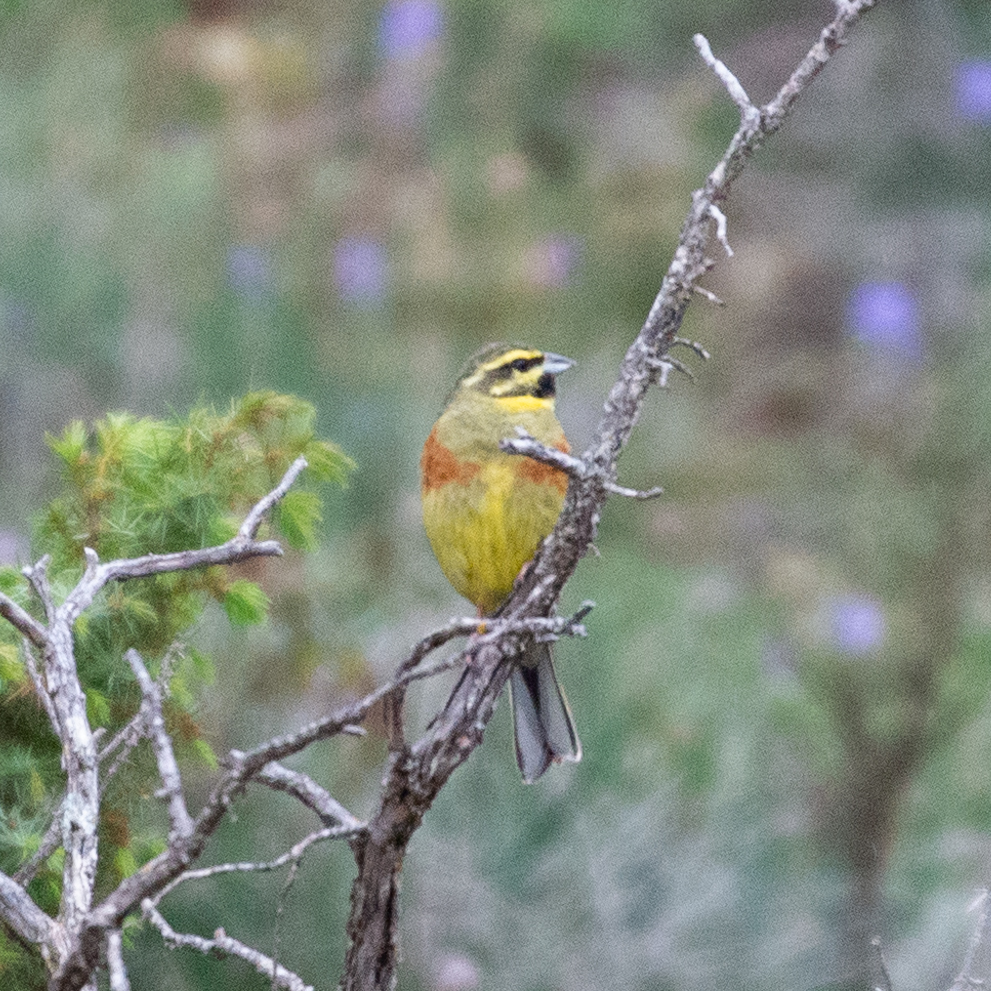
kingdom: Animalia
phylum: Chordata
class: Aves
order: Passeriformes
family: Emberizidae
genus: Emberiza
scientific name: Emberiza cirlus
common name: Cirl bunting
